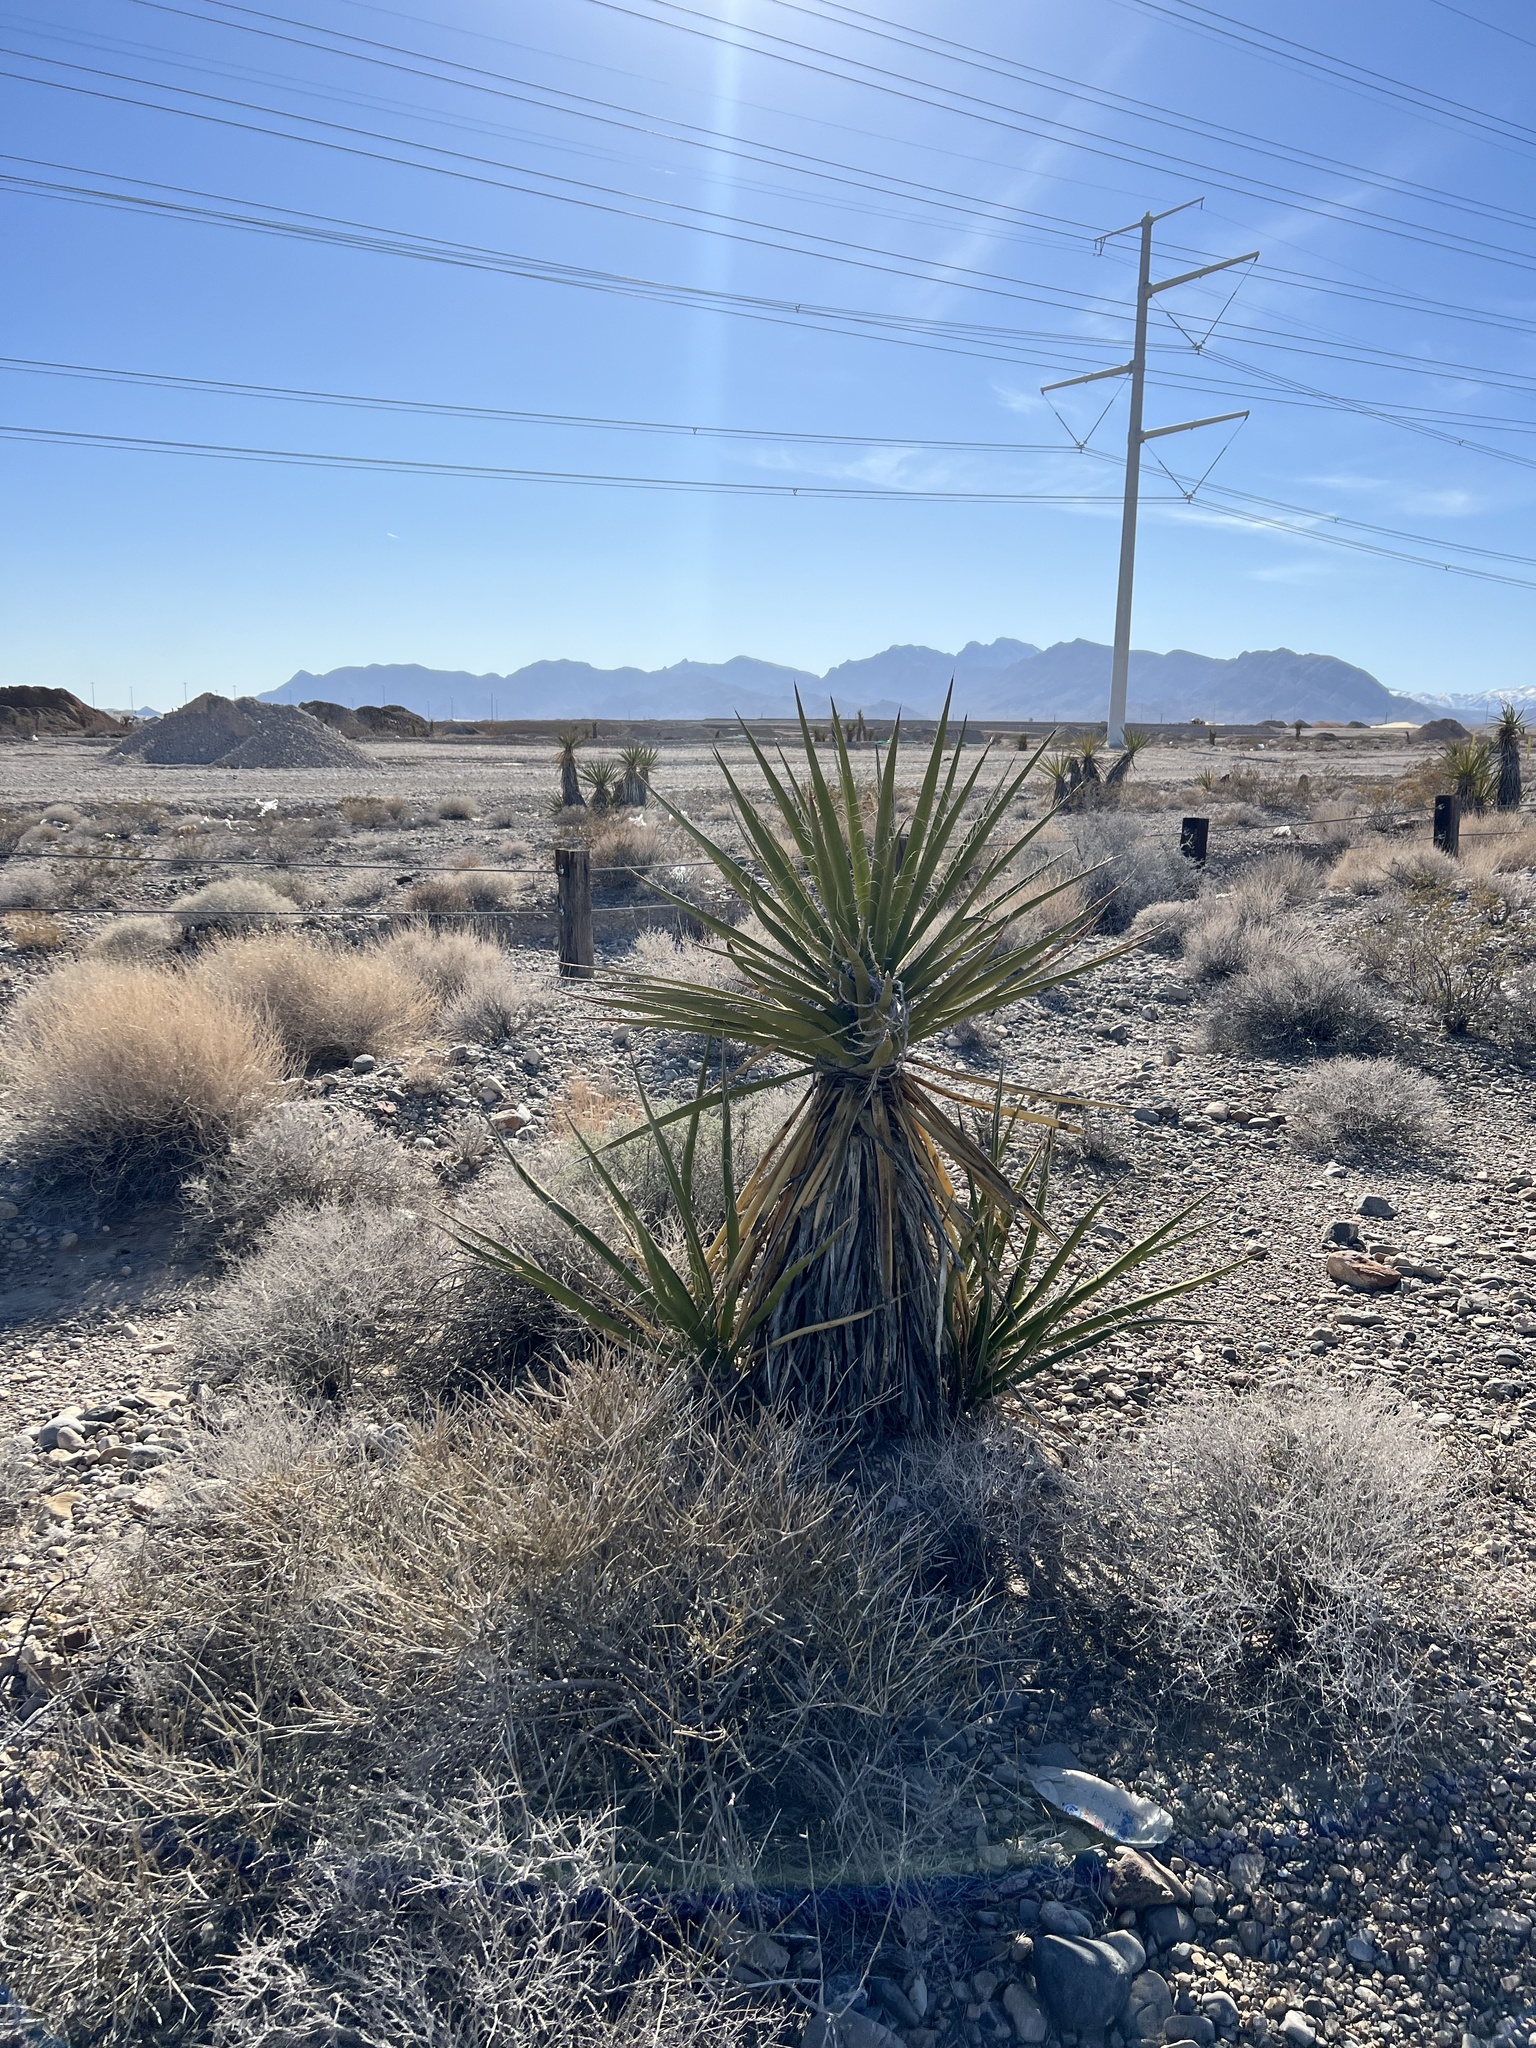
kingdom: Plantae
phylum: Tracheophyta
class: Liliopsida
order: Asparagales
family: Asparagaceae
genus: Yucca
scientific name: Yucca schidigera
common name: Mojave yucca
